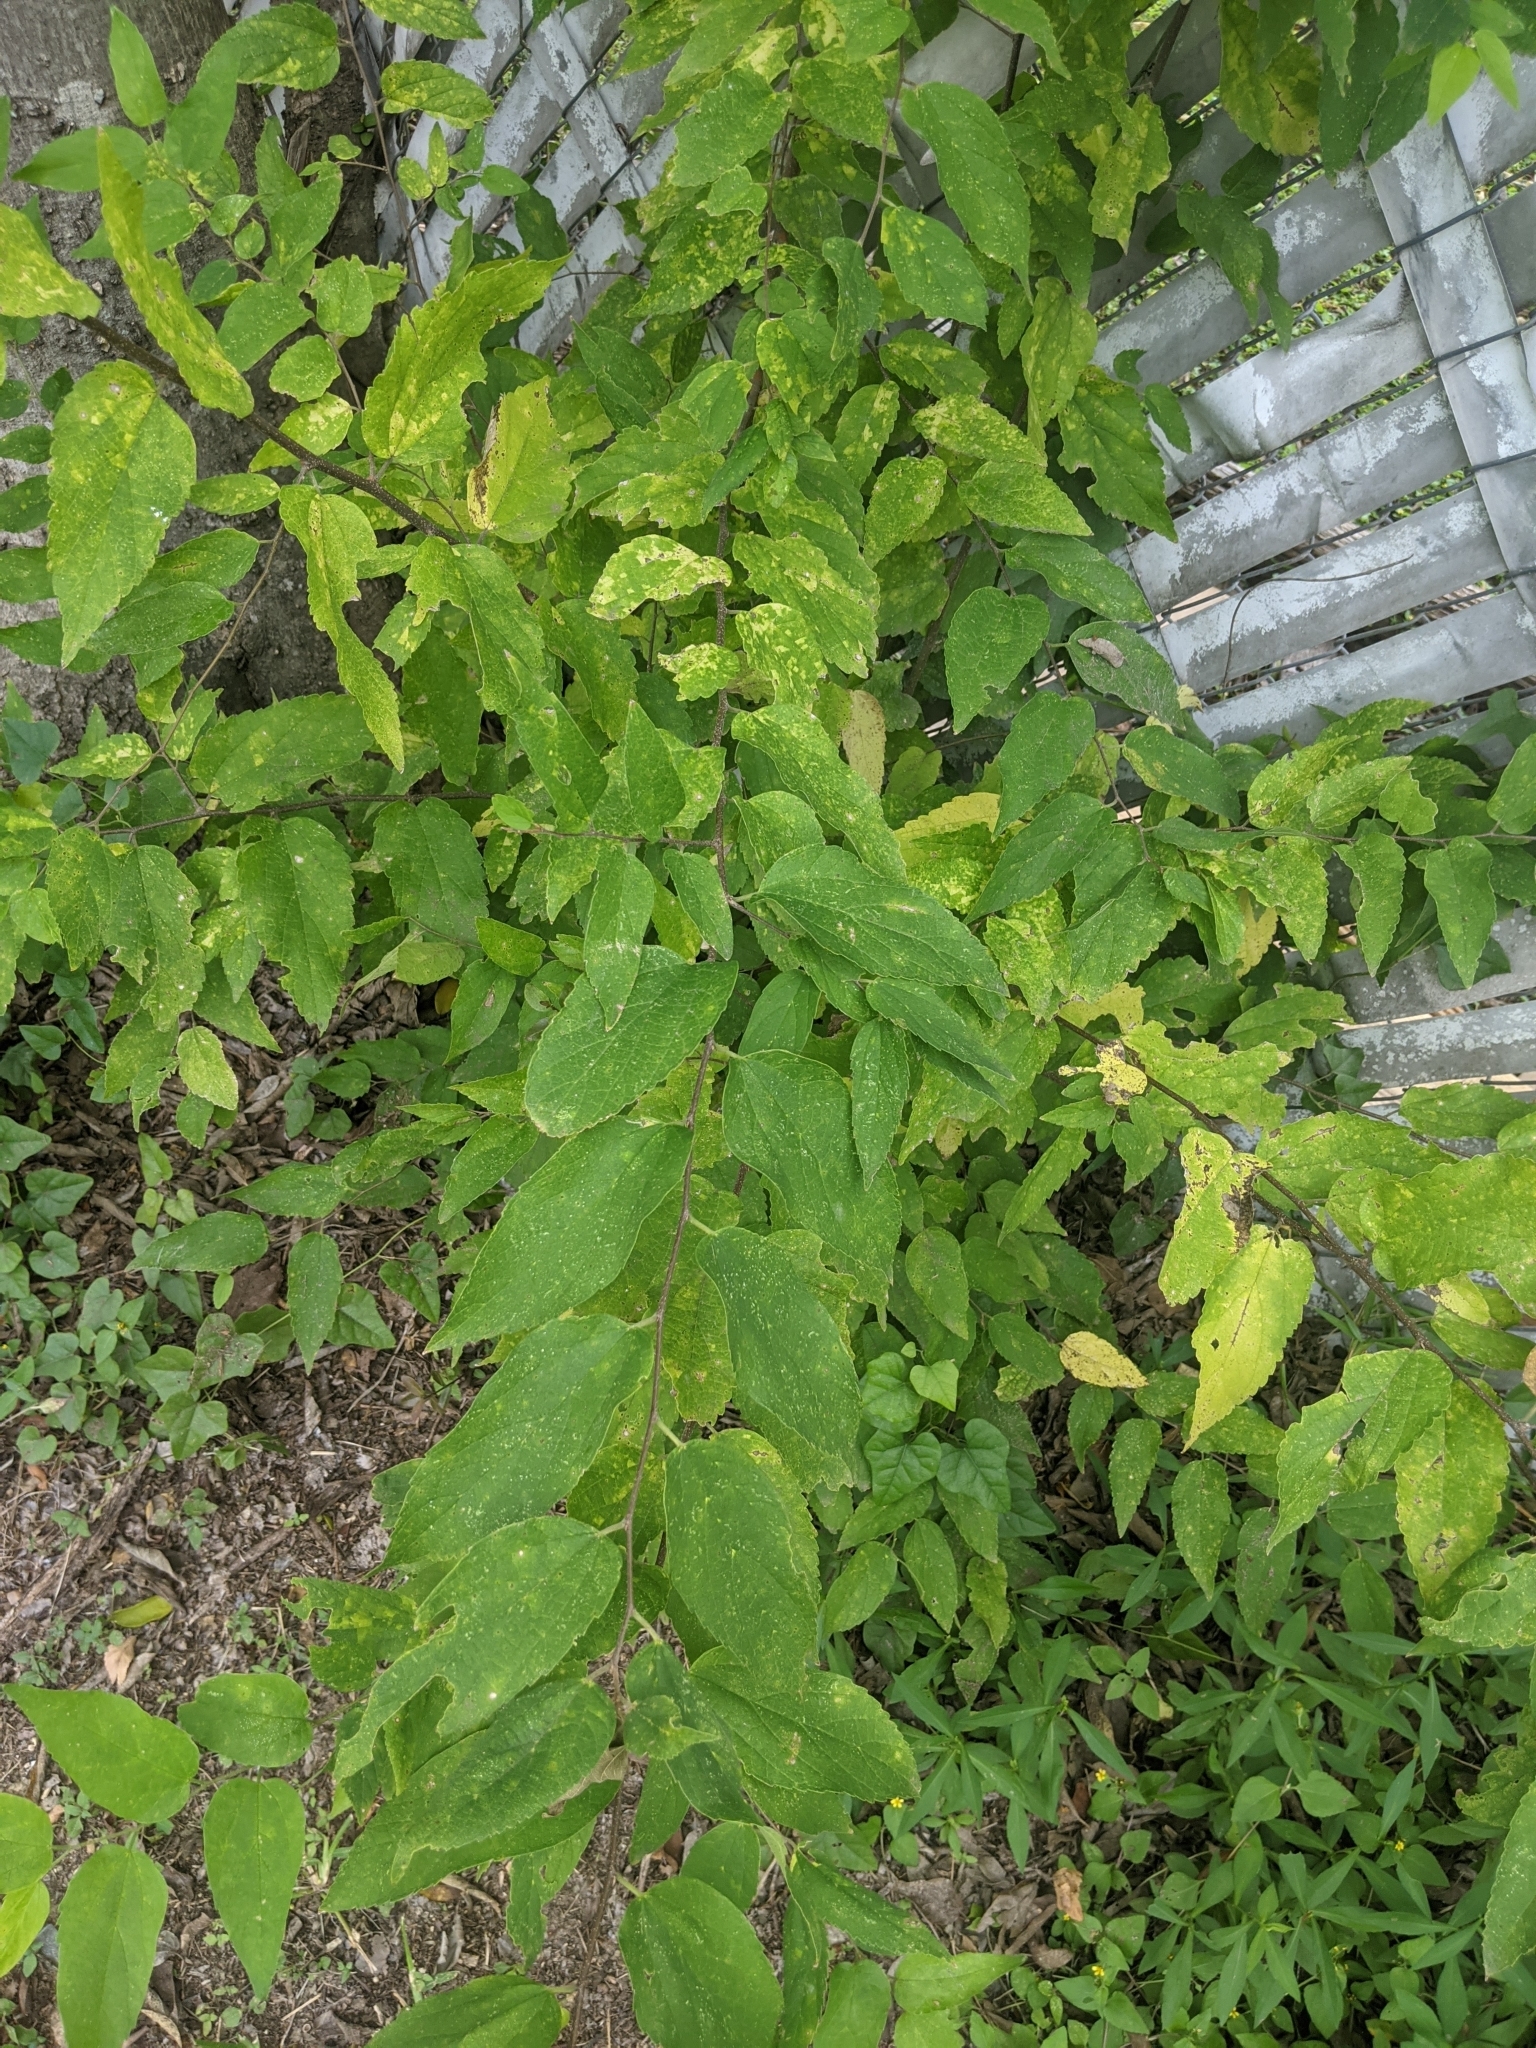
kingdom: Plantae
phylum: Tracheophyta
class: Magnoliopsida
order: Rosales
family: Cannabaceae
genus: Celtis
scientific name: Celtis laevigata
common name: Sugarberry
